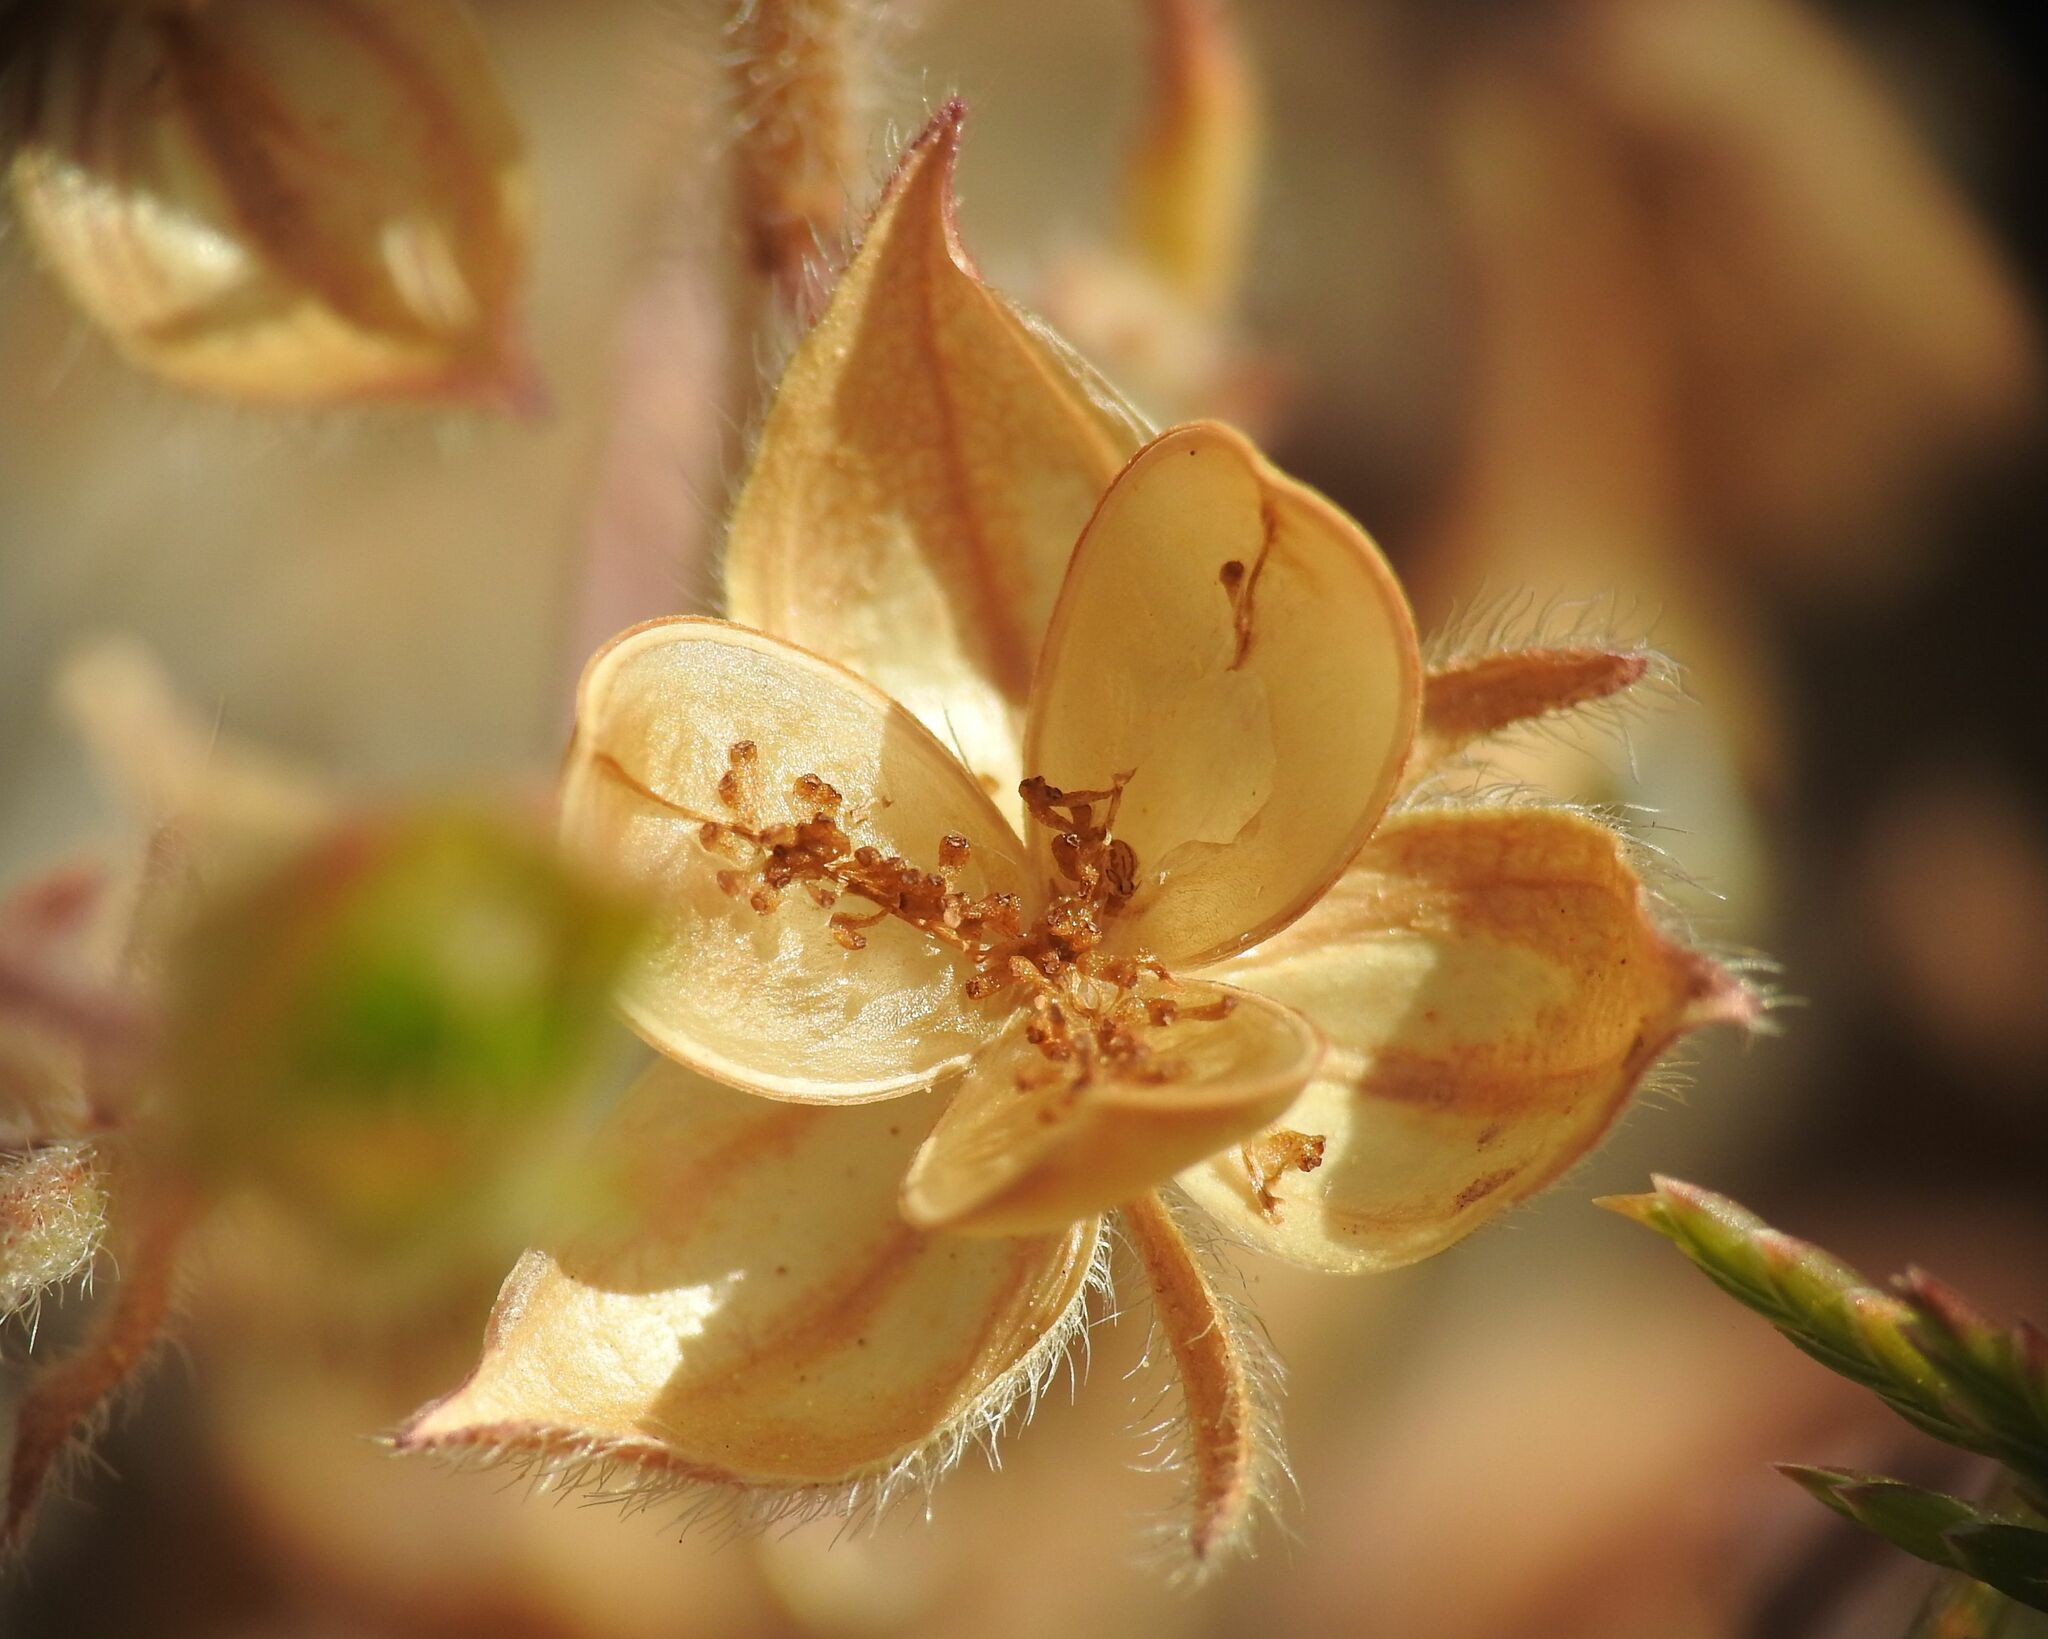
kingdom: Plantae
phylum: Tracheophyta
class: Magnoliopsida
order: Malvales
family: Cistaceae
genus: Helianthemum
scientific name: Helianthemum salicifolium
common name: Willowleaf frostweed
